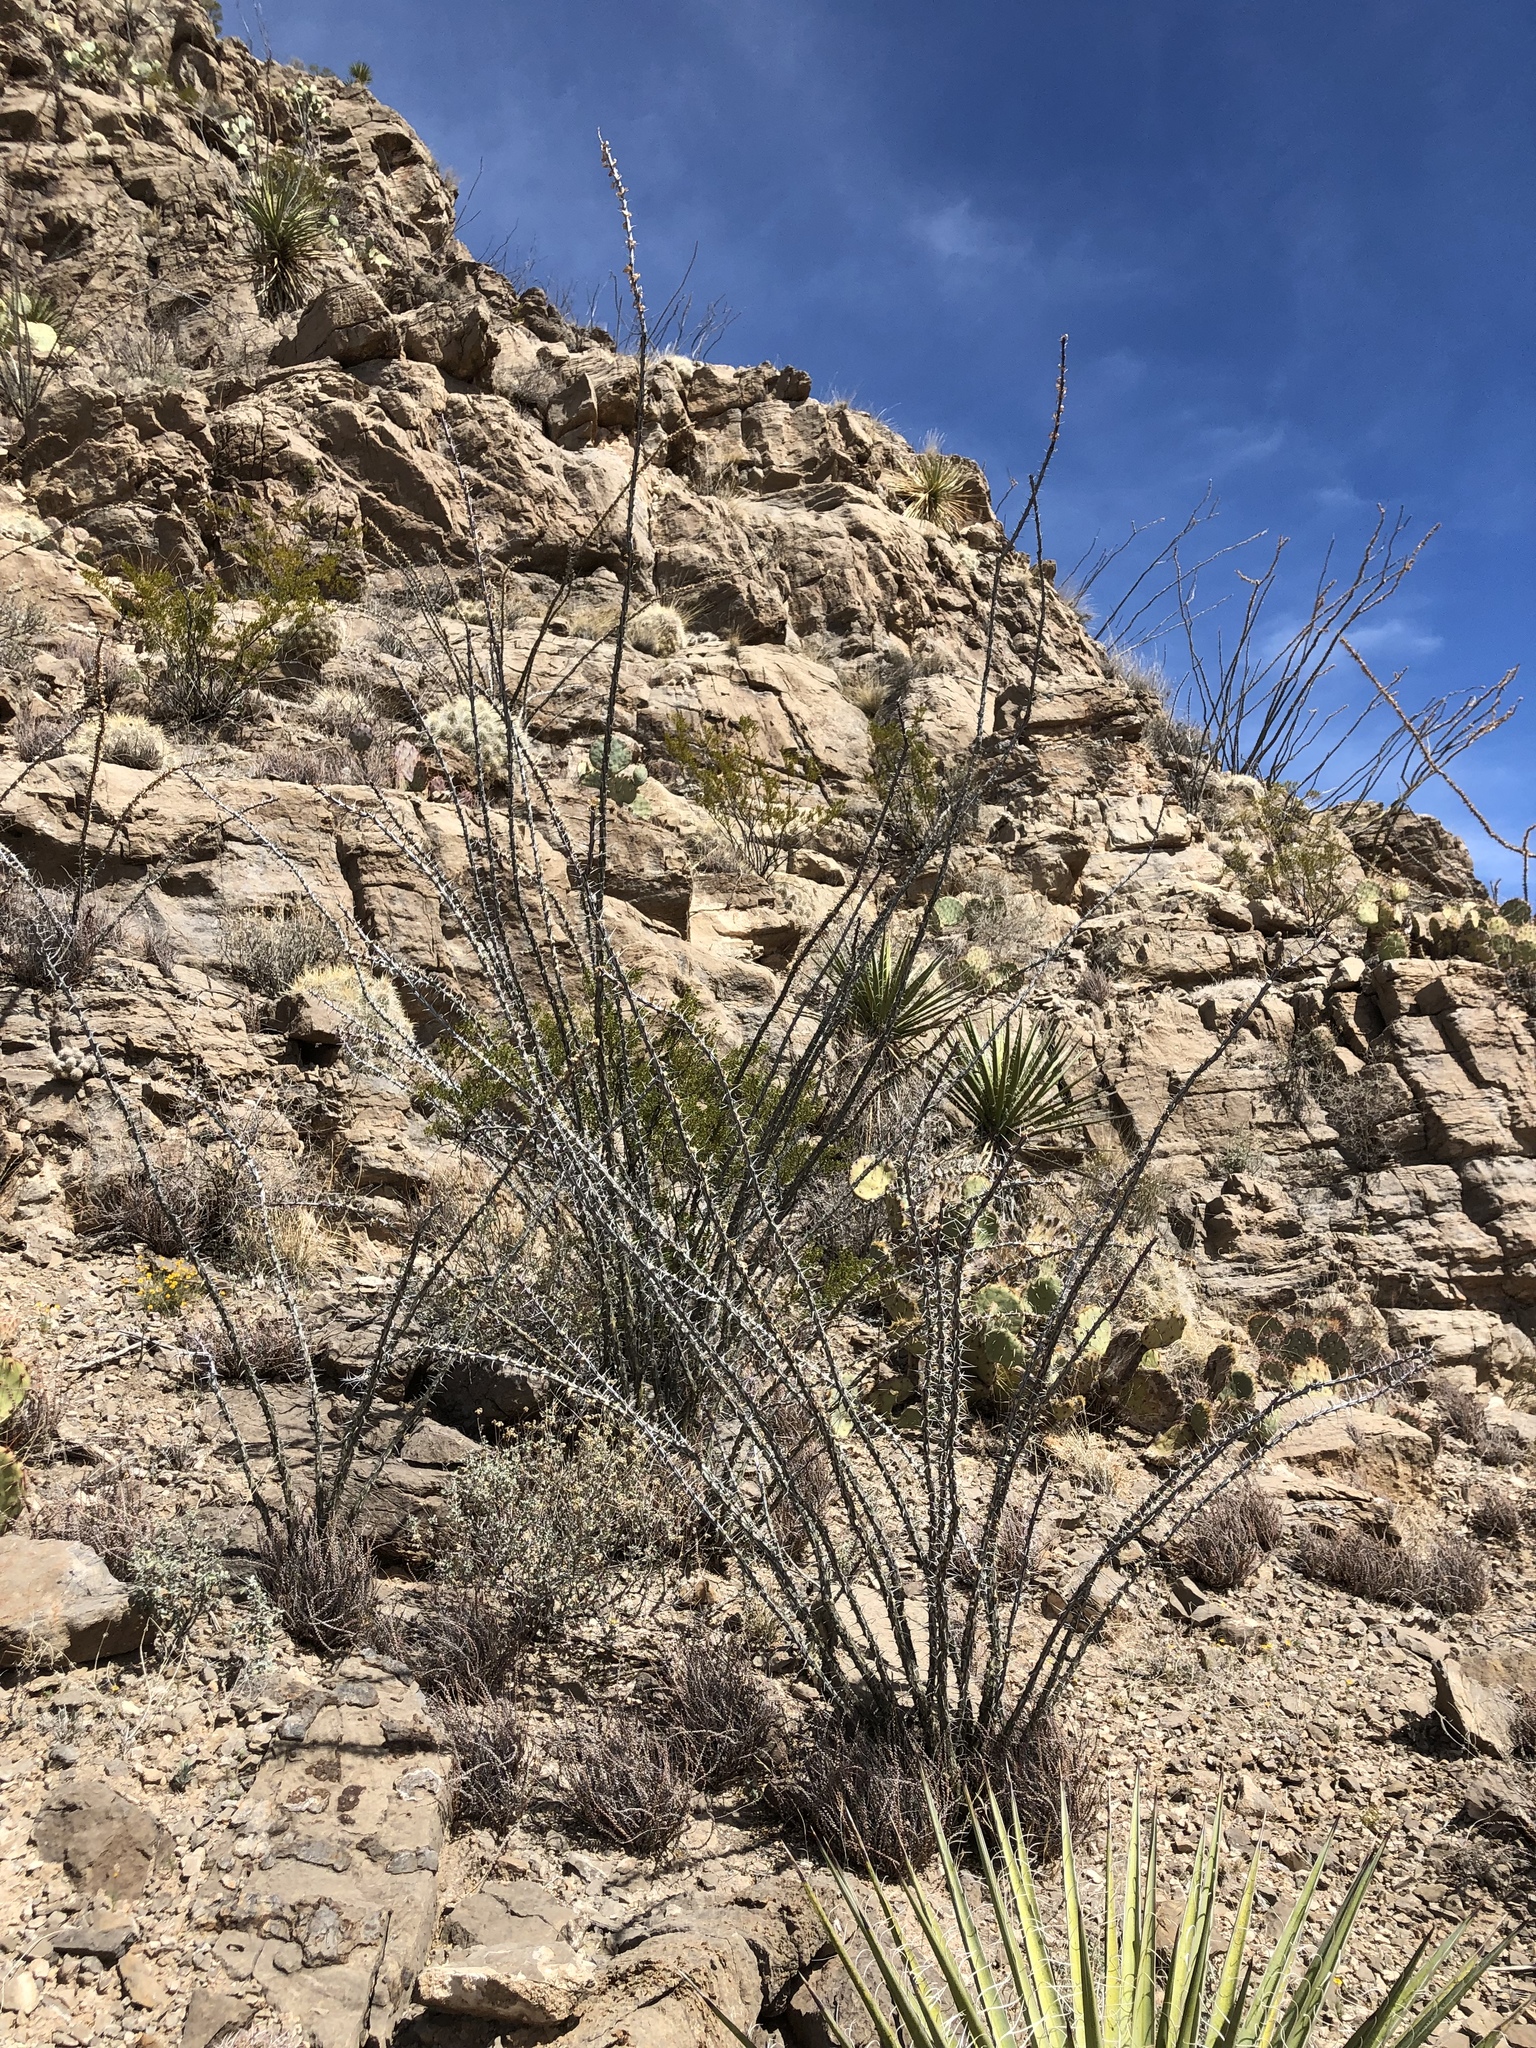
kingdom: Plantae
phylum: Tracheophyta
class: Magnoliopsida
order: Ericales
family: Fouquieriaceae
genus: Fouquieria
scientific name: Fouquieria splendens
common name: Vine-cactus
